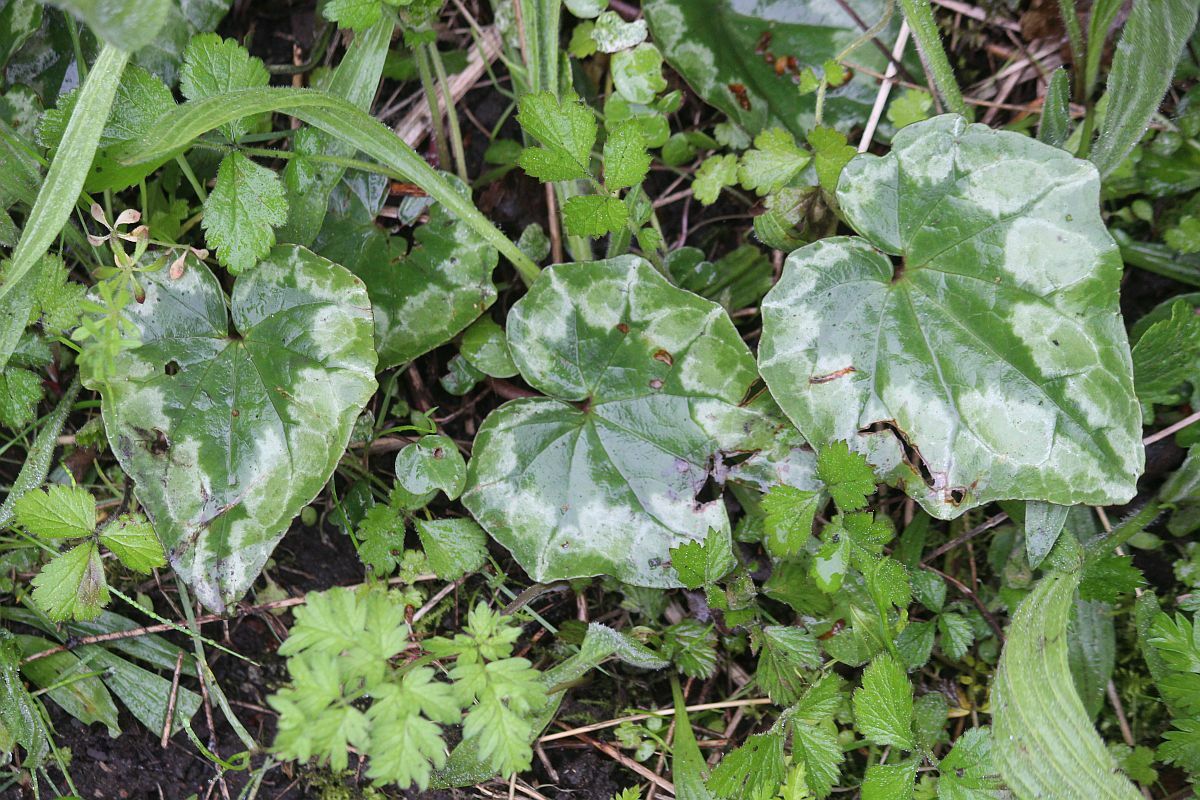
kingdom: Plantae
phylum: Tracheophyta
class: Magnoliopsida
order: Ericales
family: Primulaceae
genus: Cyclamen
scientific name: Cyclamen hederifolium
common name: Sowbread
